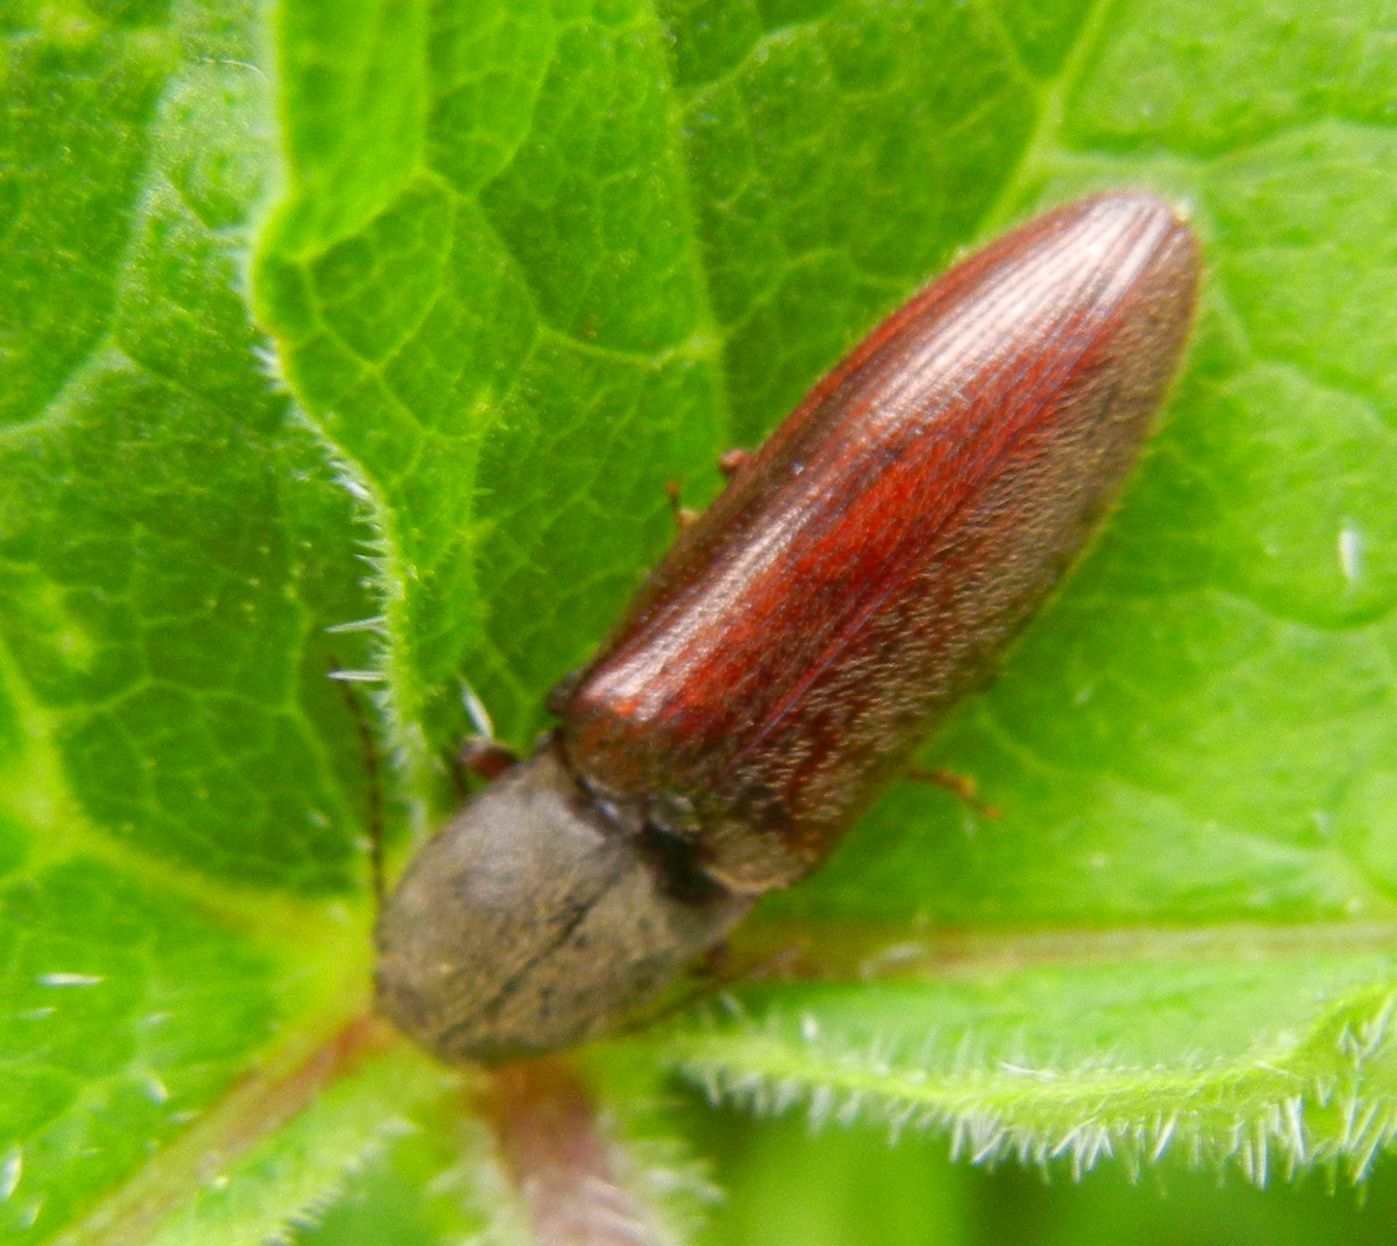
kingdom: Animalia
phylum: Arthropoda
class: Insecta
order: Coleoptera
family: Elateridae
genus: Athous
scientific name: Athous haemorrhoidalis
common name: Red-brown click beetle
